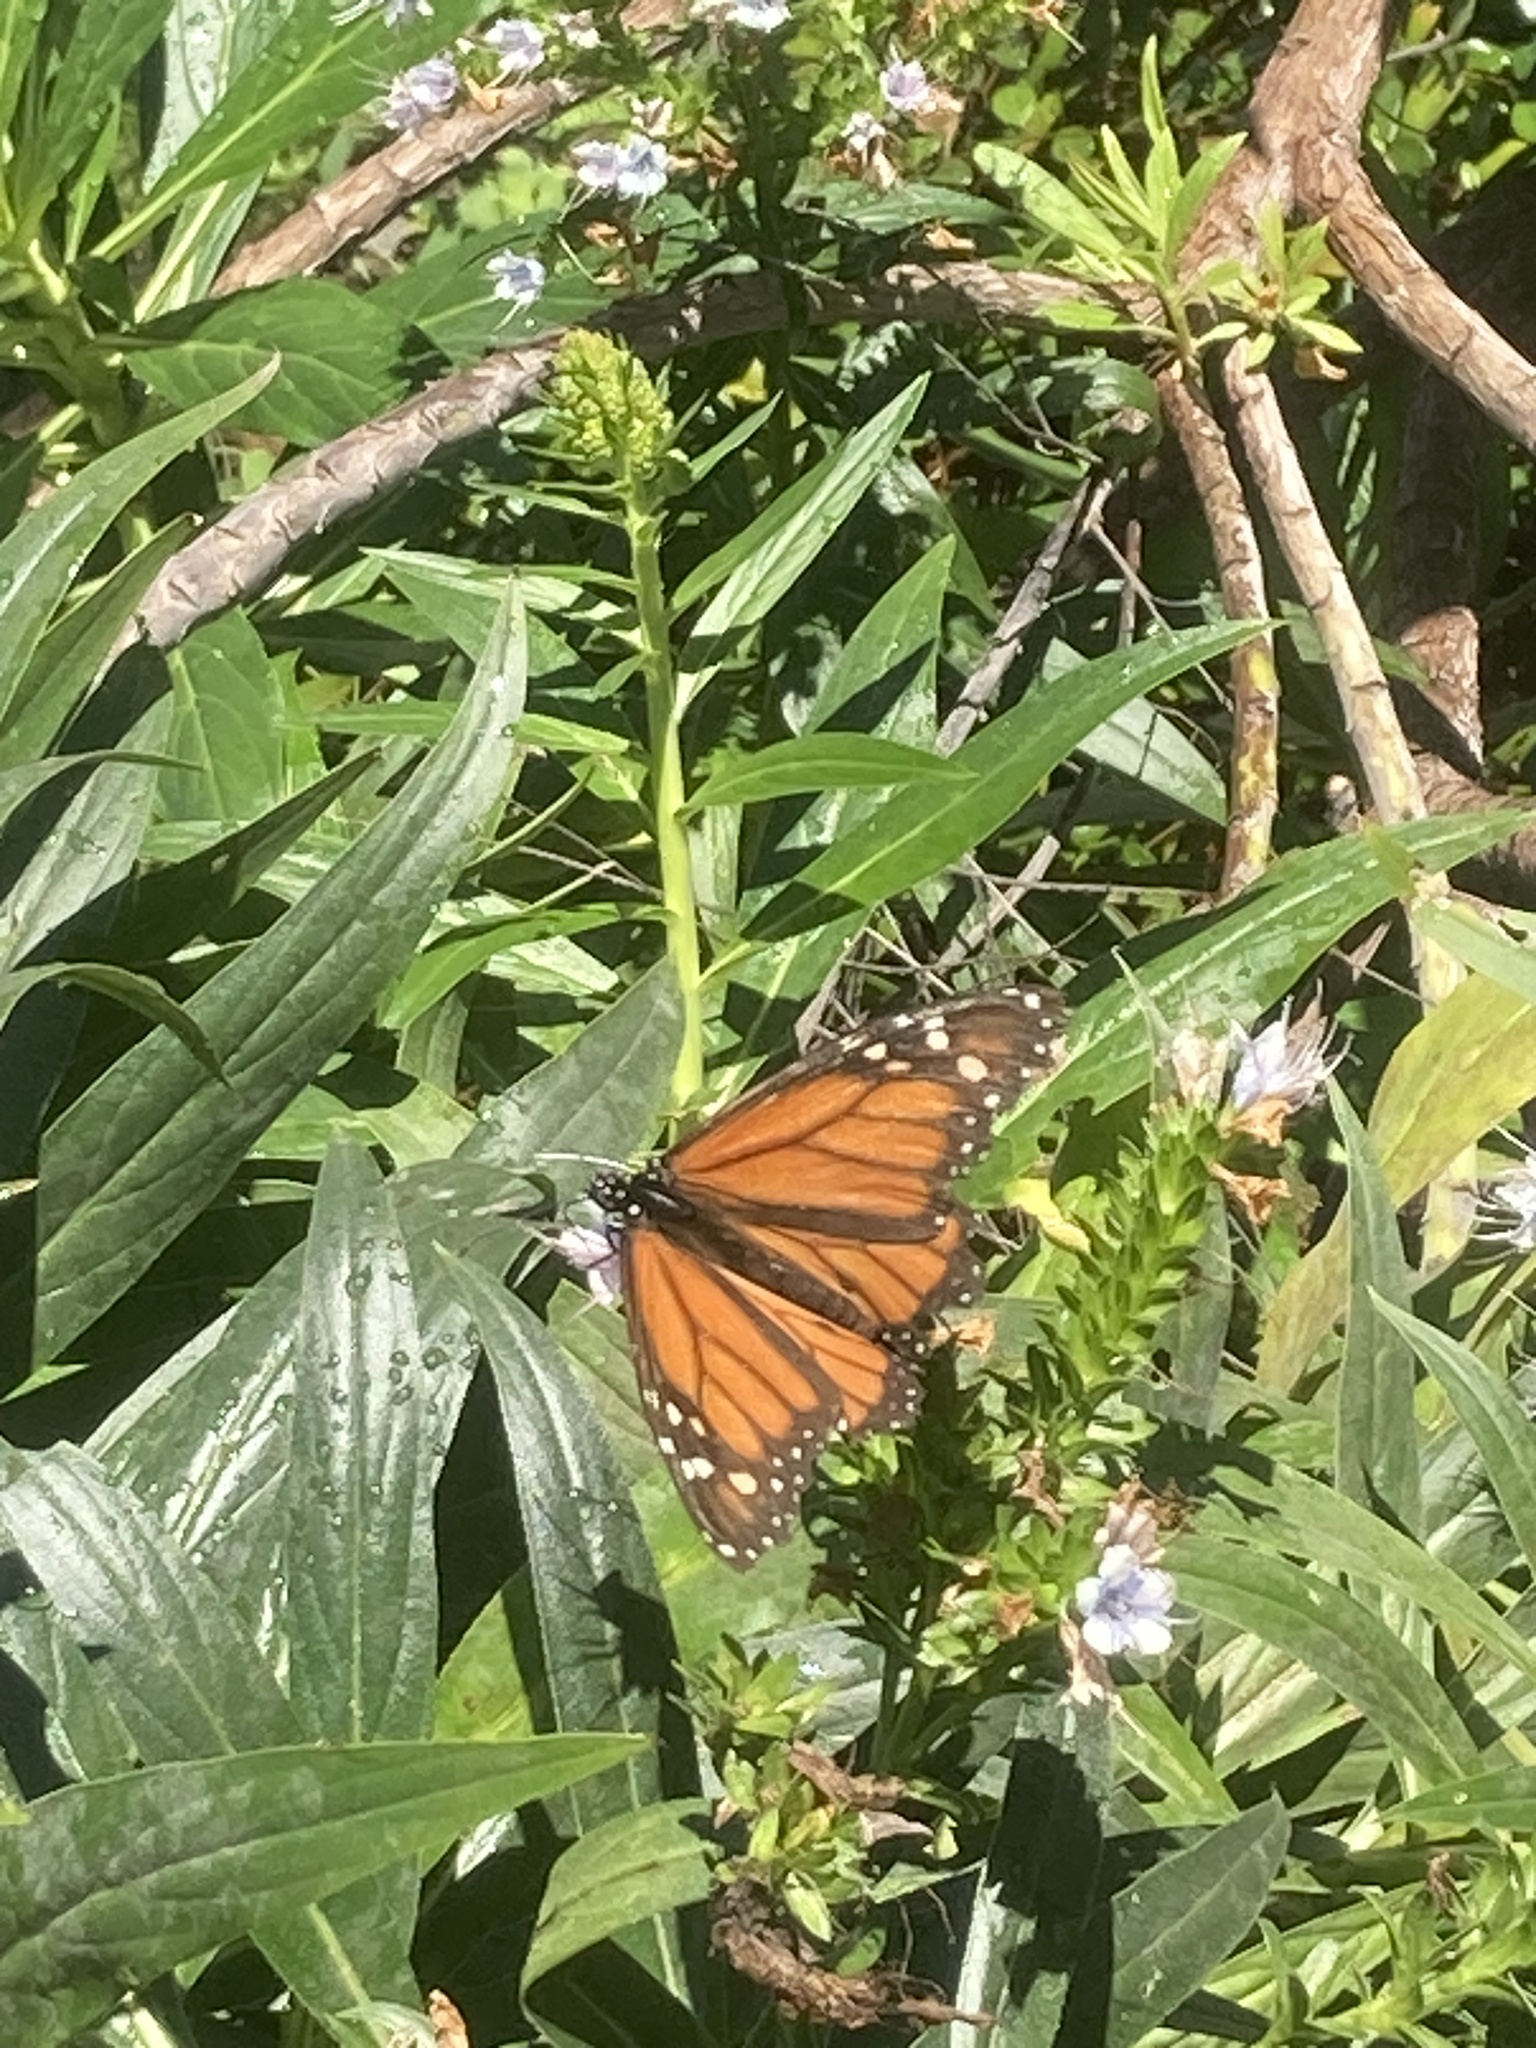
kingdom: Animalia
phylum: Arthropoda
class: Insecta
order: Lepidoptera
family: Nymphalidae
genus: Danaus
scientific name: Danaus plexippus
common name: Monarch
